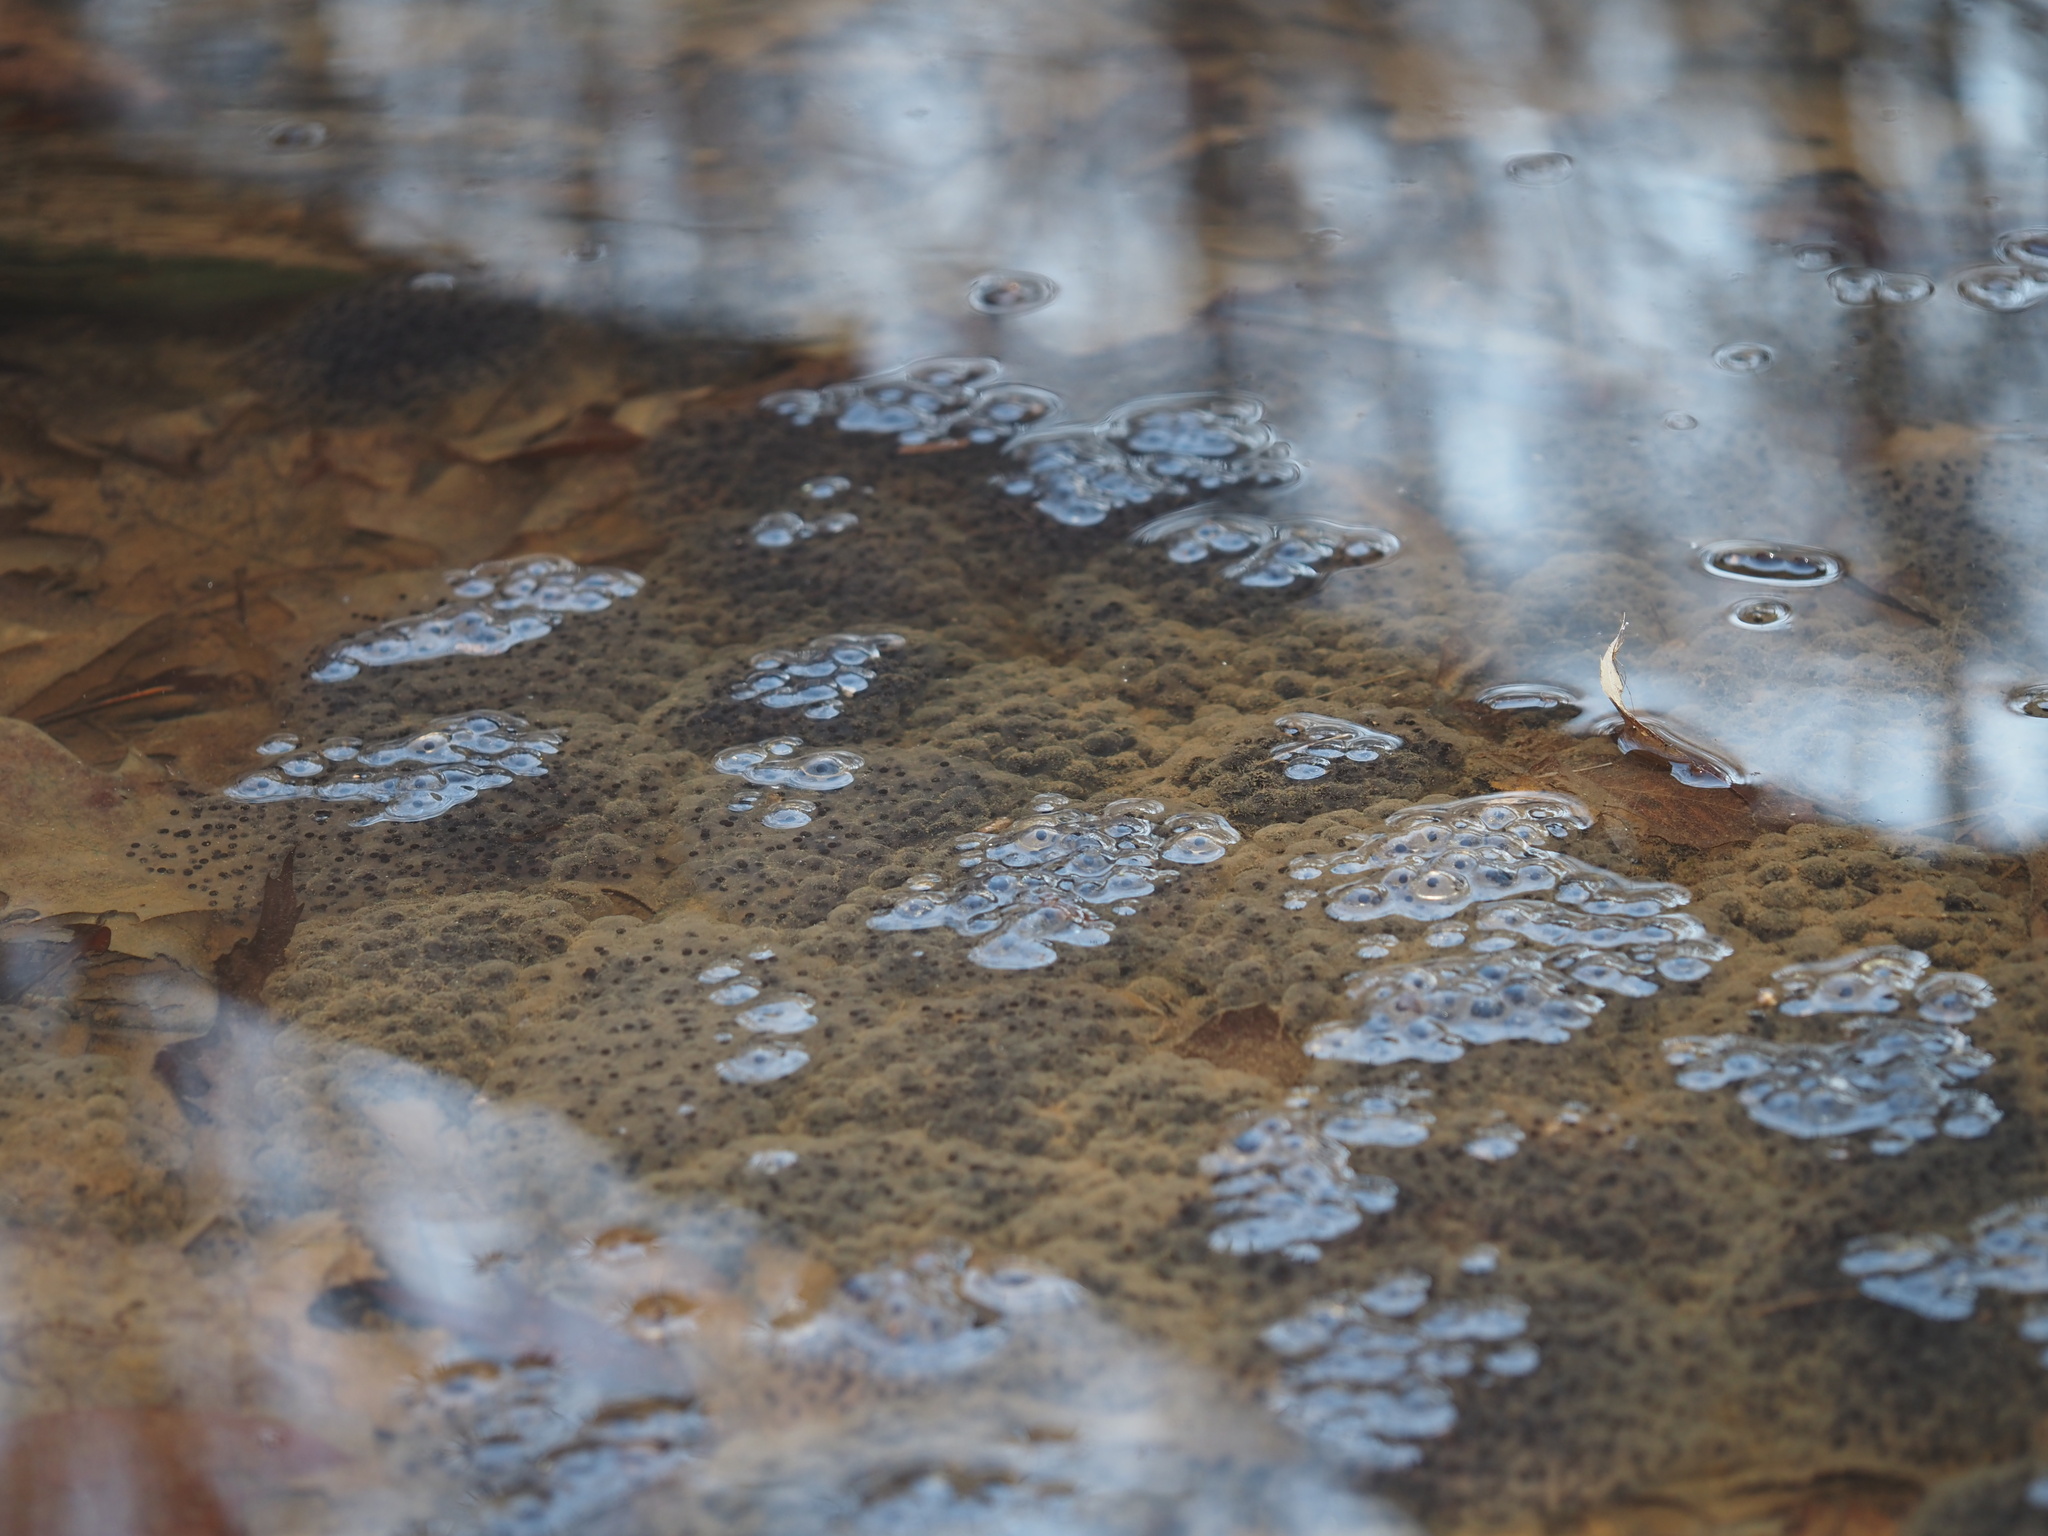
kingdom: Animalia
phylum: Chordata
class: Amphibia
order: Anura
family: Ranidae
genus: Lithobates
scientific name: Lithobates sylvaticus
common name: Wood frog
